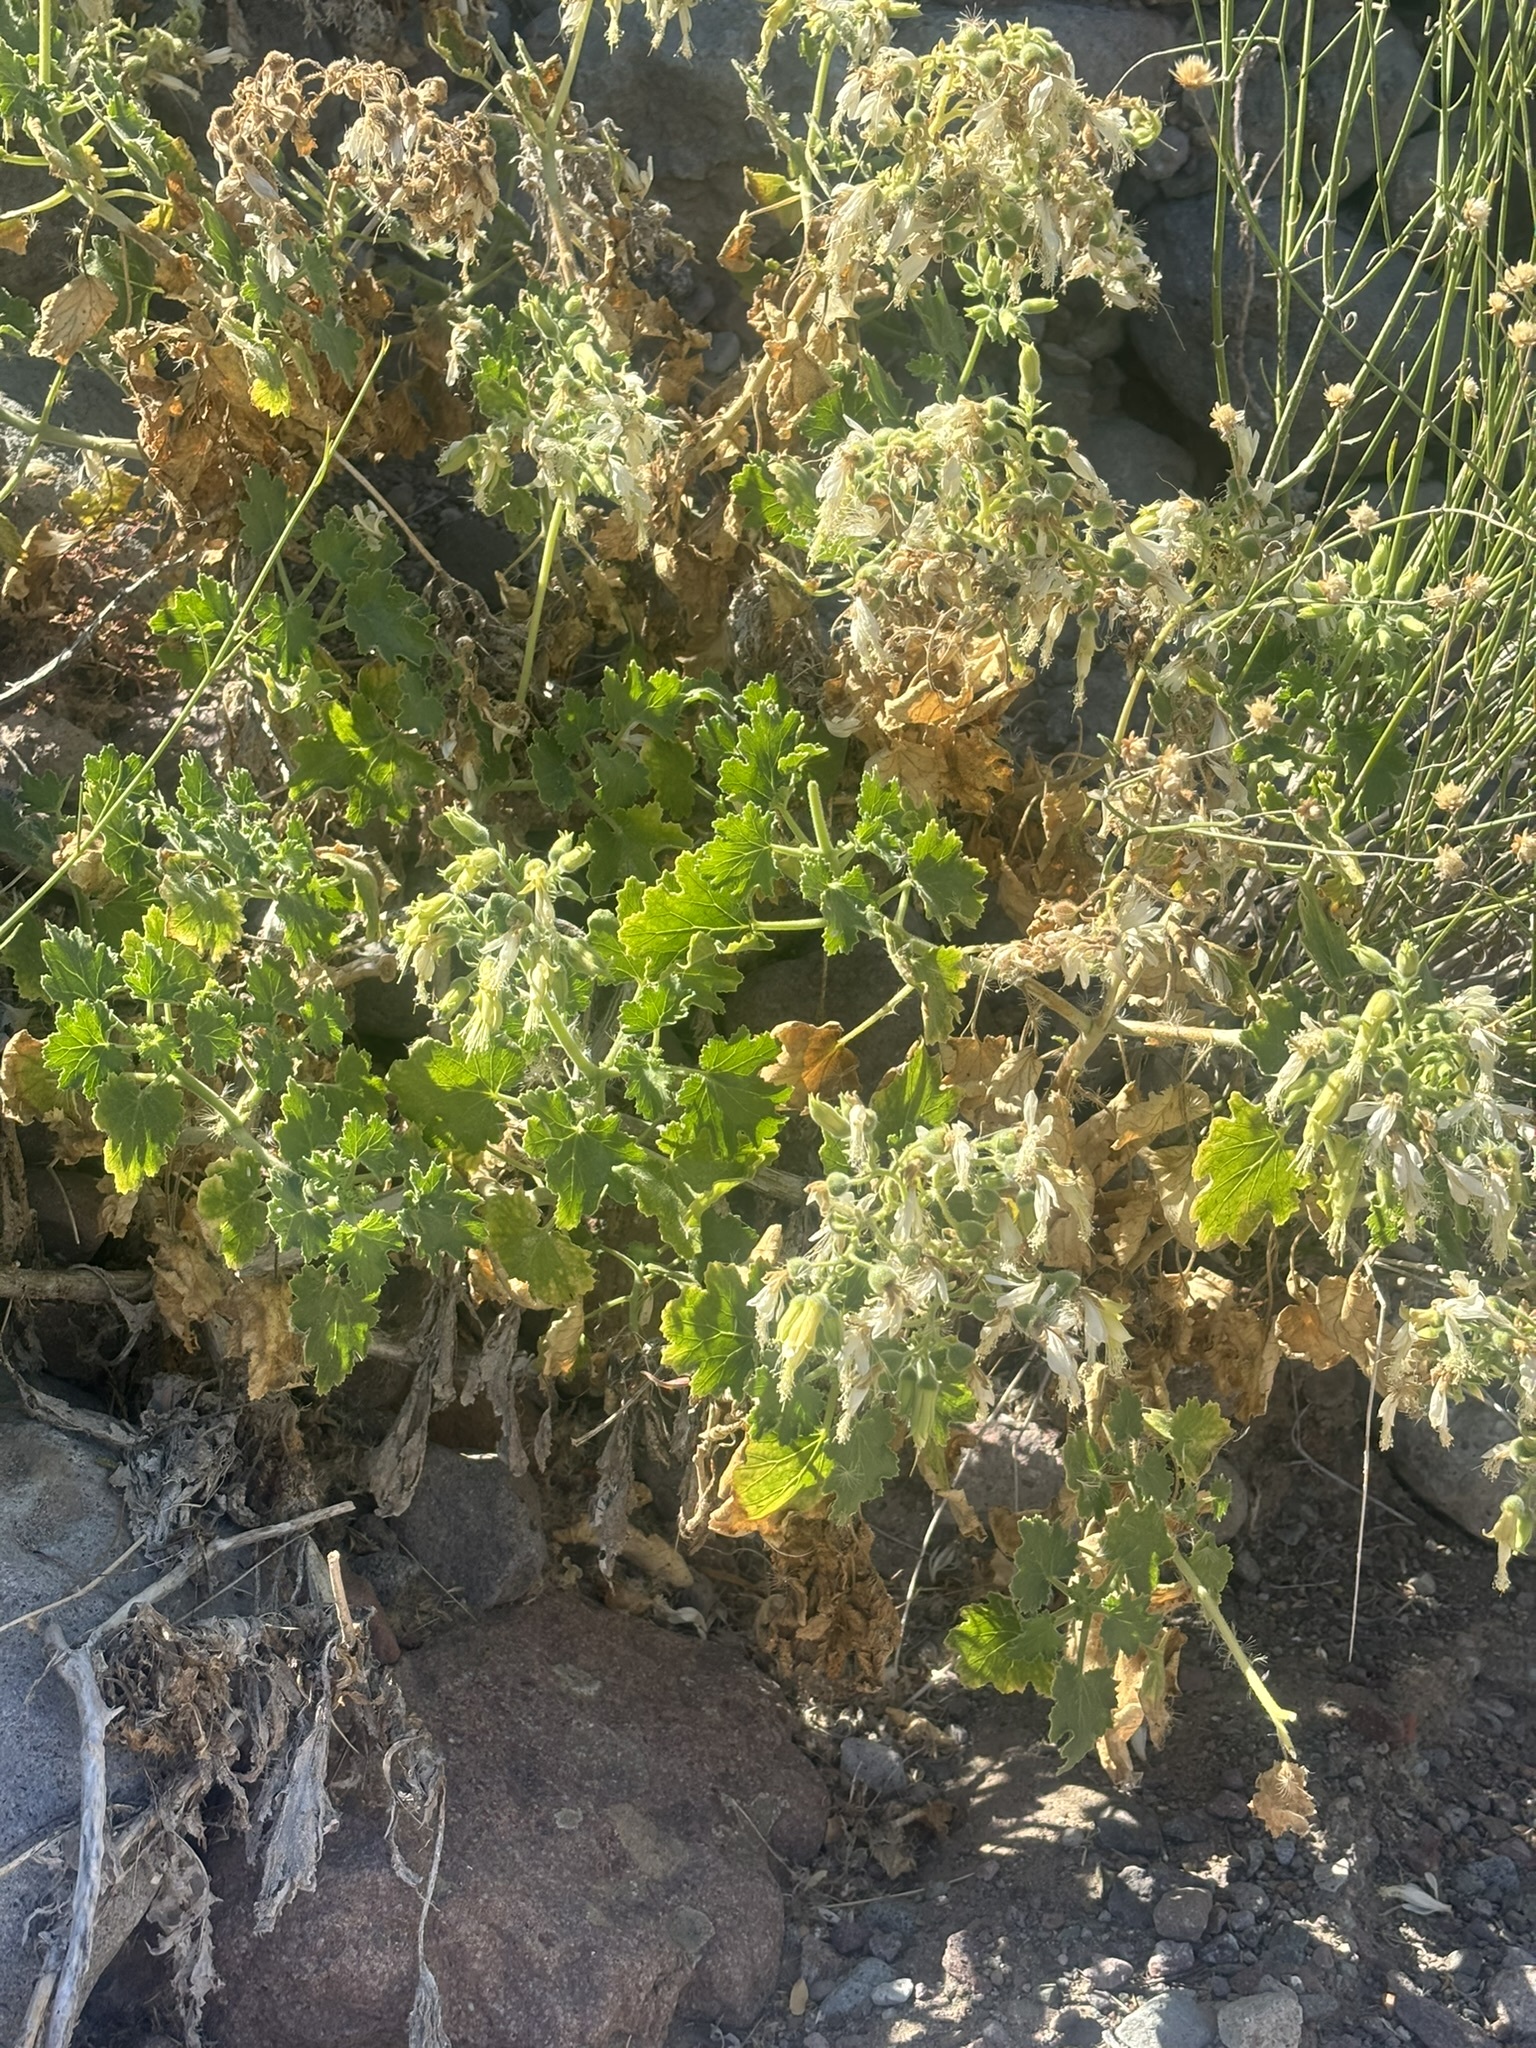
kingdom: Plantae
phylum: Tracheophyta
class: Magnoliopsida
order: Cornales
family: Loasaceae
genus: Eucnide
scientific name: Eucnide cordata
